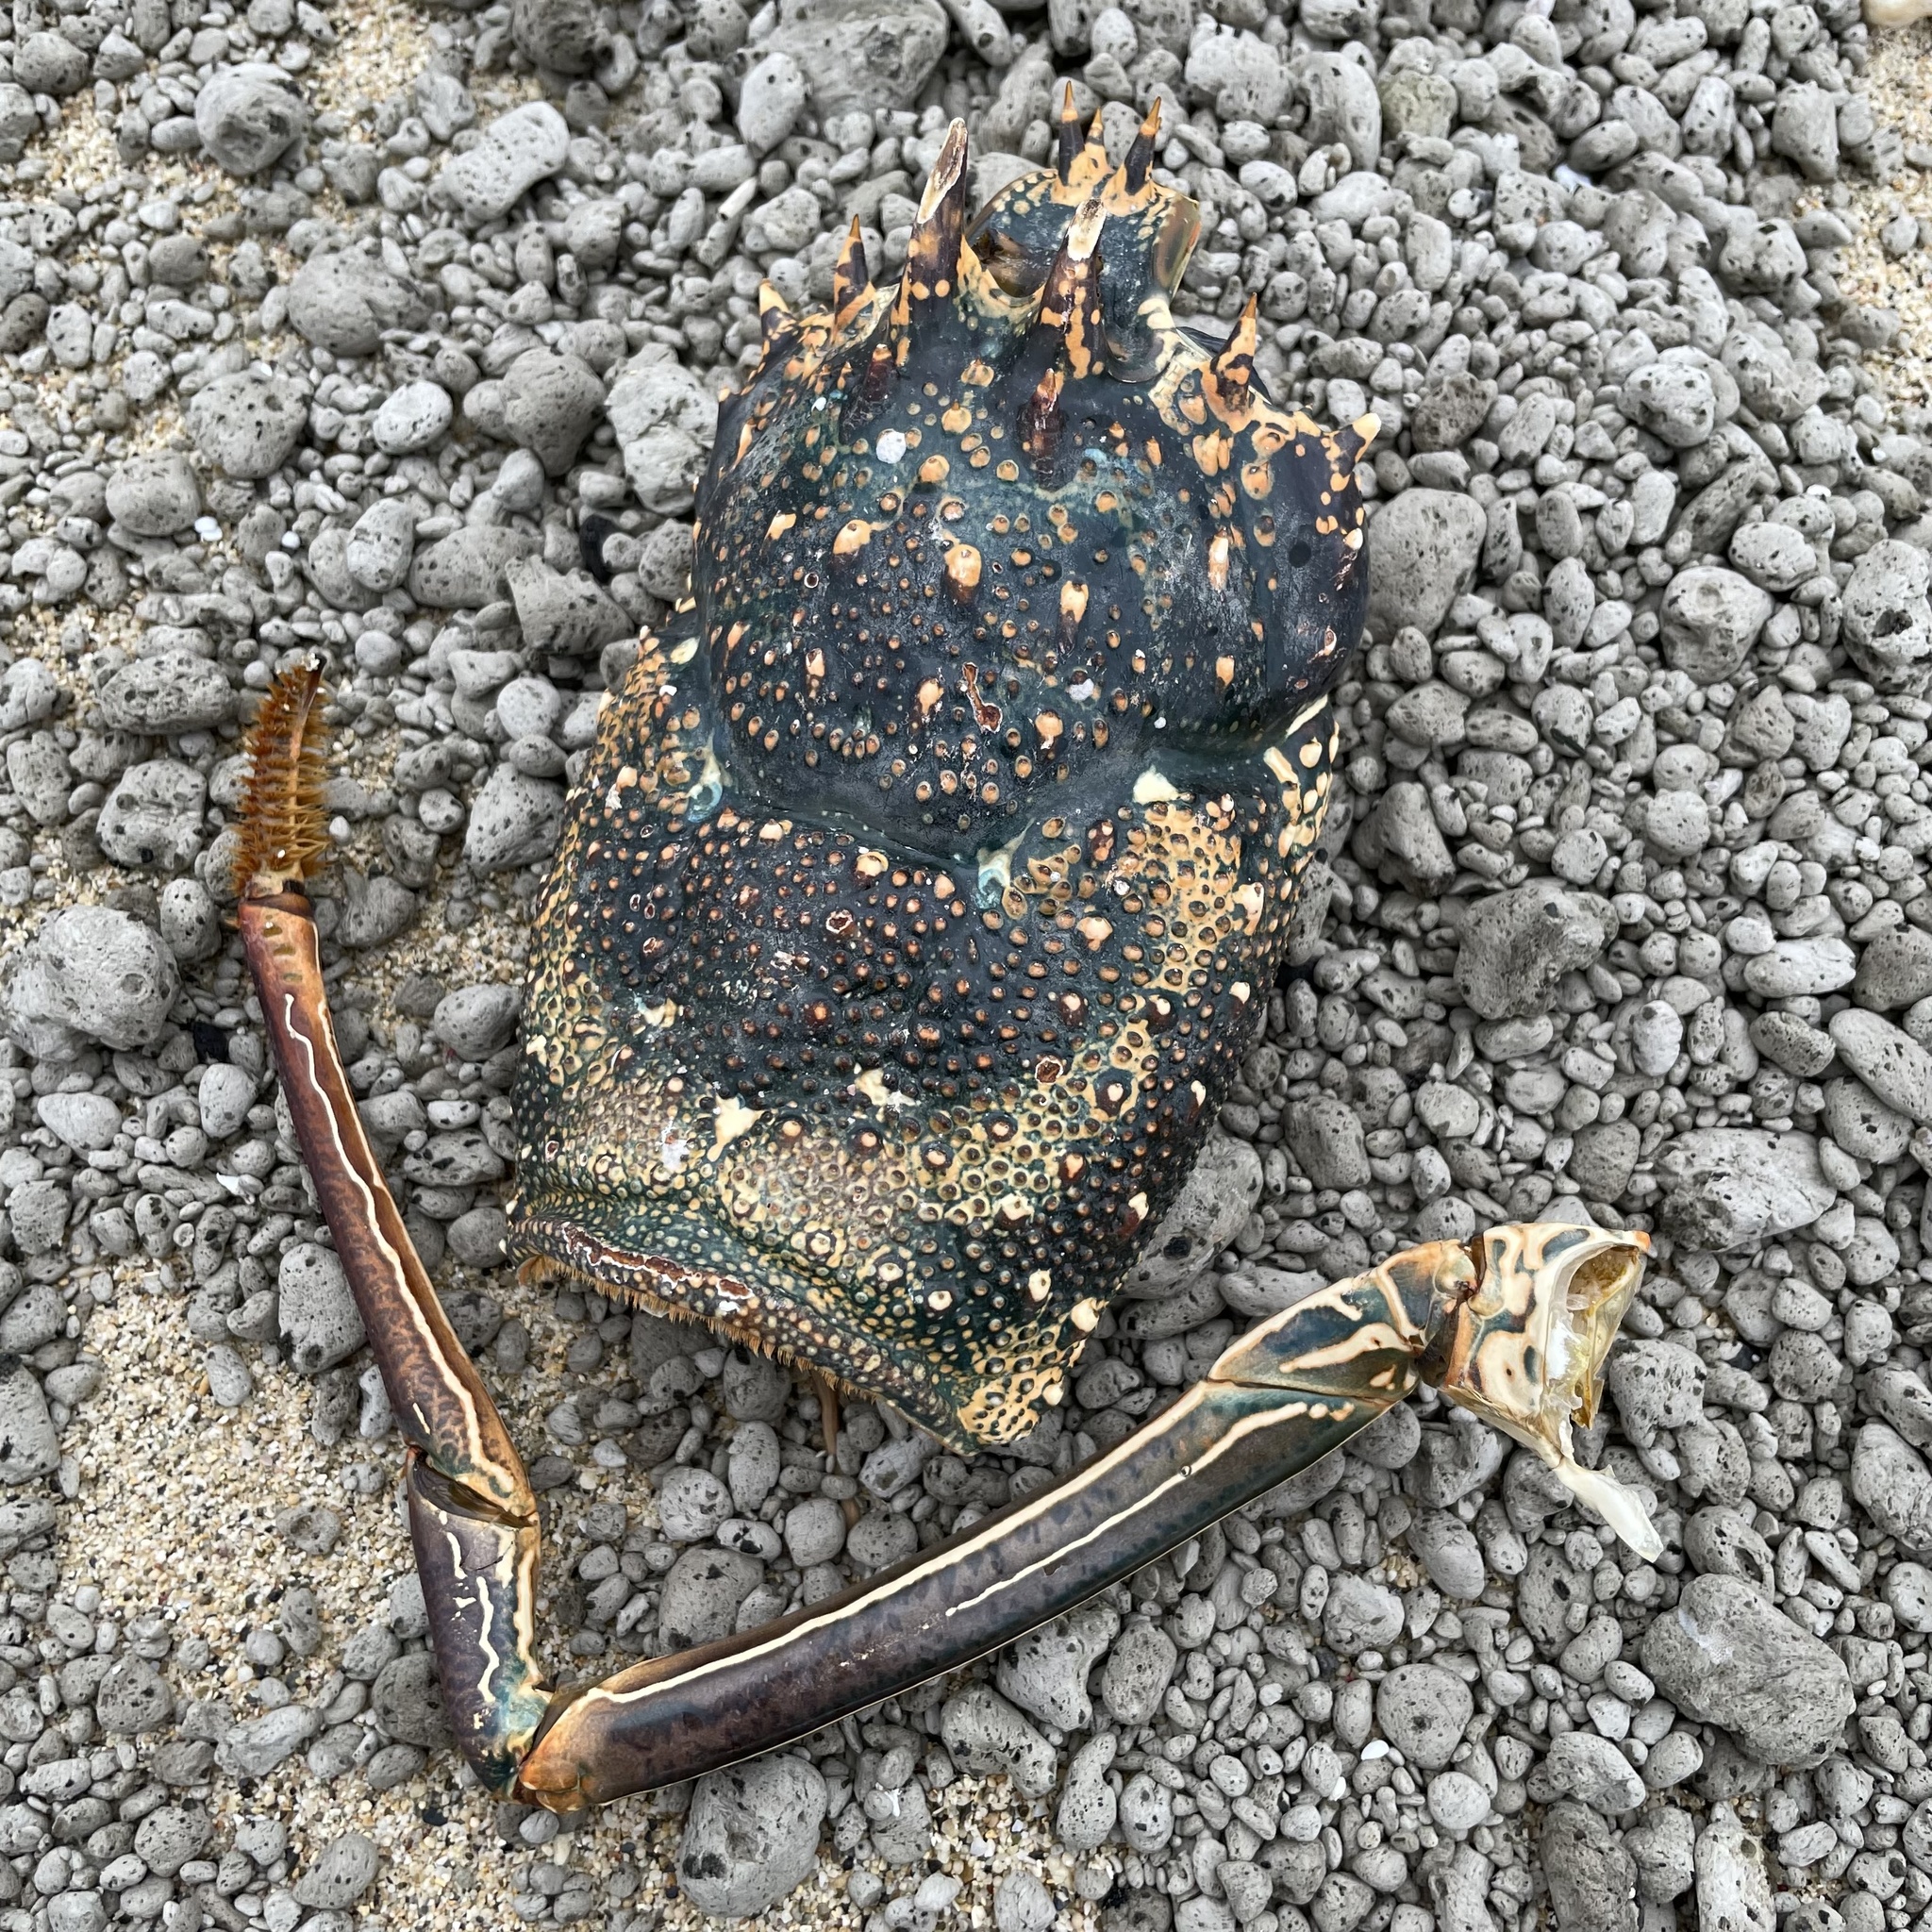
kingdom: Animalia
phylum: Arthropoda
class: Malacostraca
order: Decapoda
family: Palinuridae
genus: Panulirus
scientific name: Panulirus penicillatus
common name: Pronghorn spiny lobster
